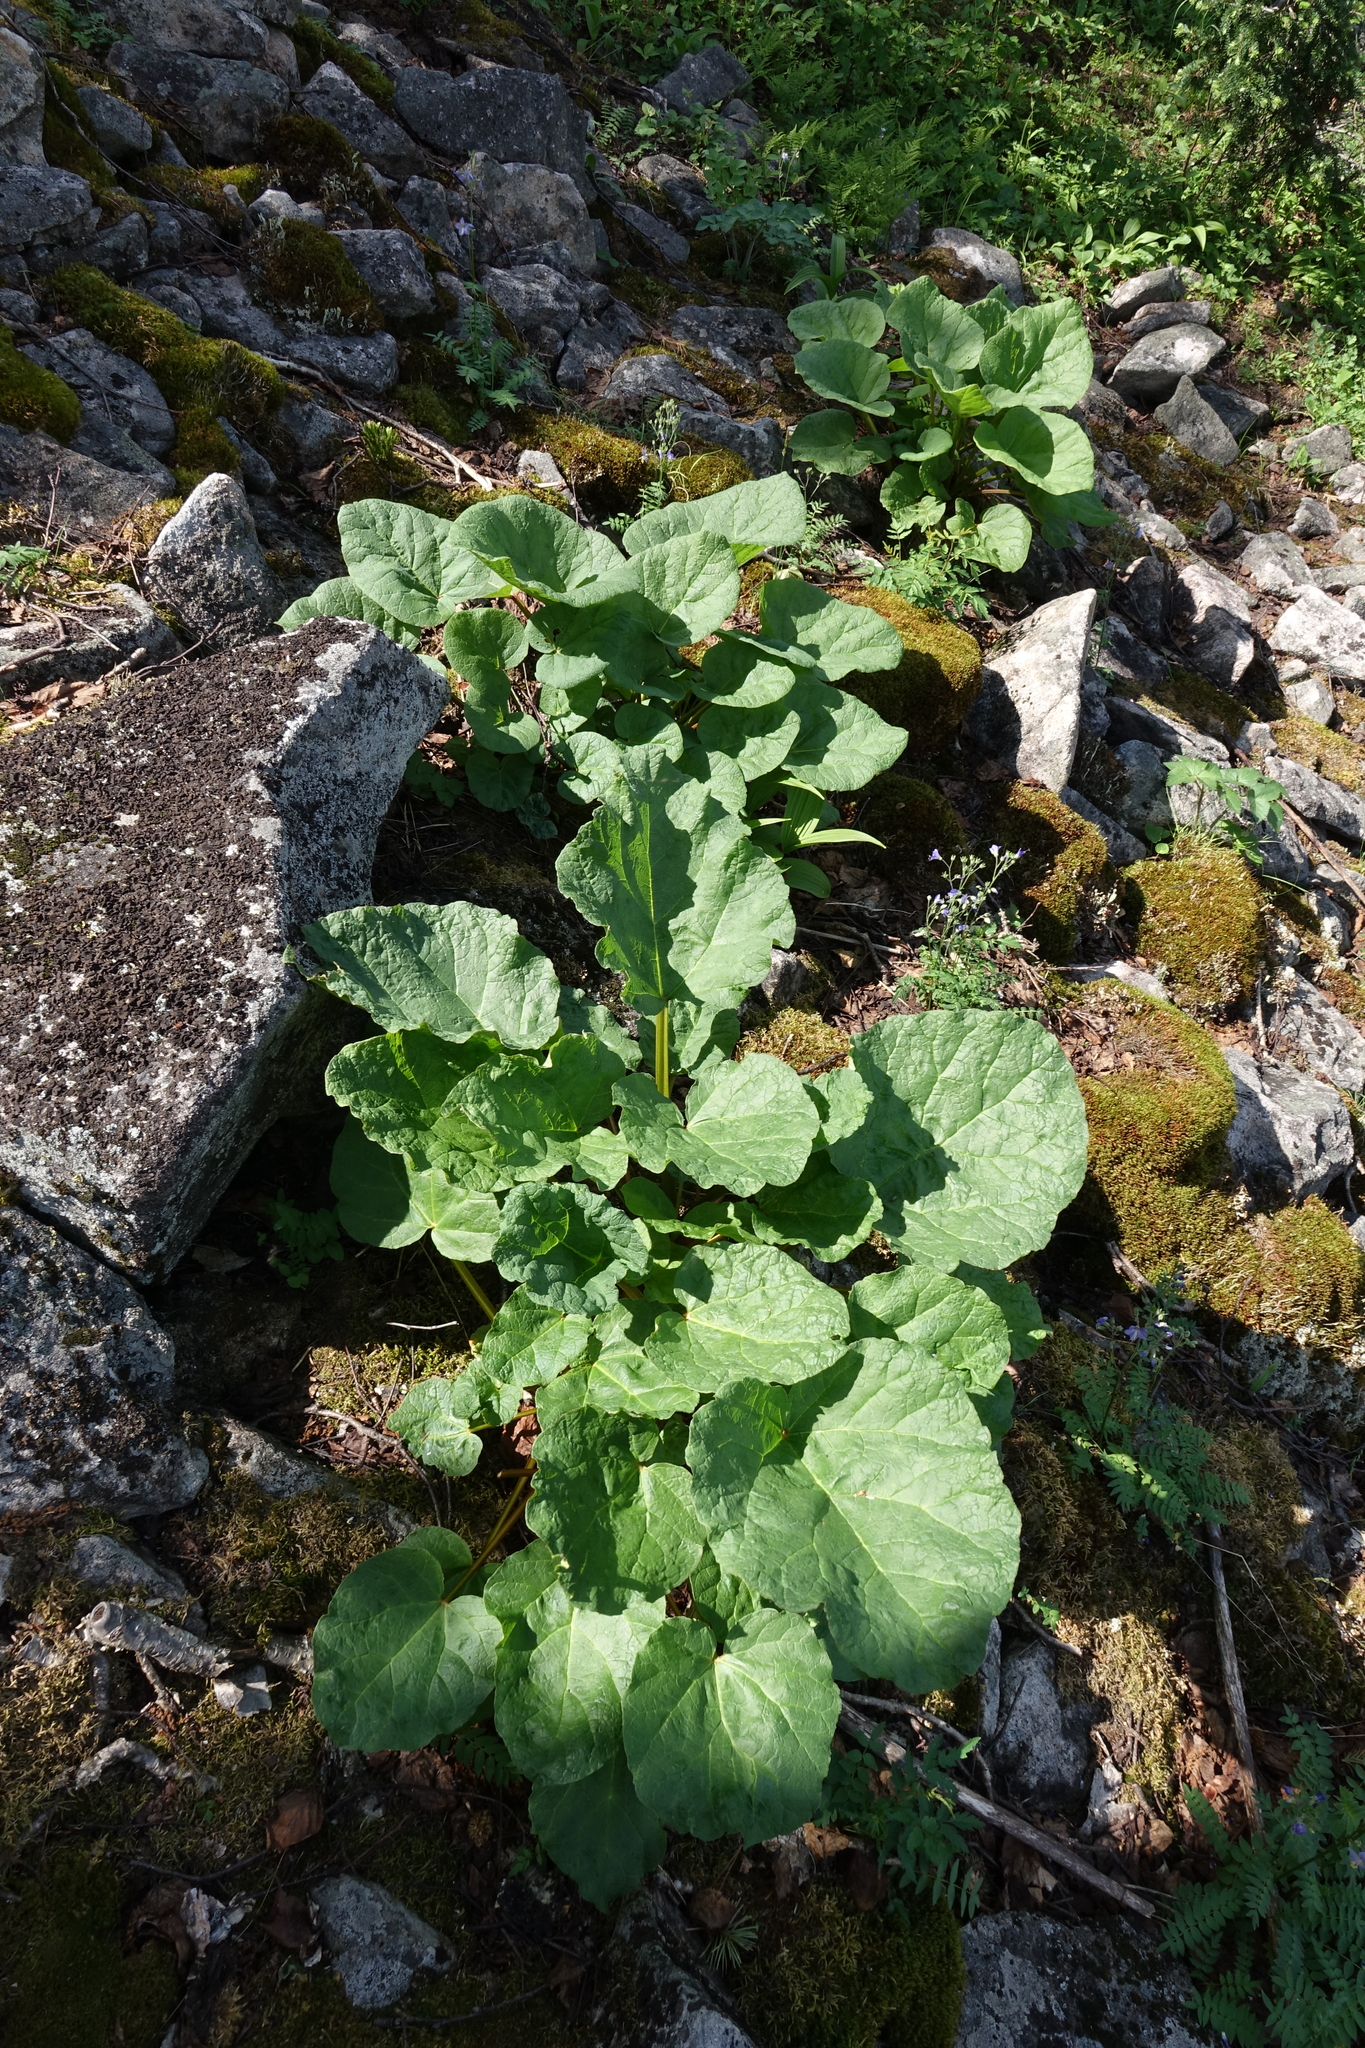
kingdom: Plantae
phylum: Tracheophyta
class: Magnoliopsida
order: Caryophyllales
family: Polygonaceae
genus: Rheum
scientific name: Rheum compactum
